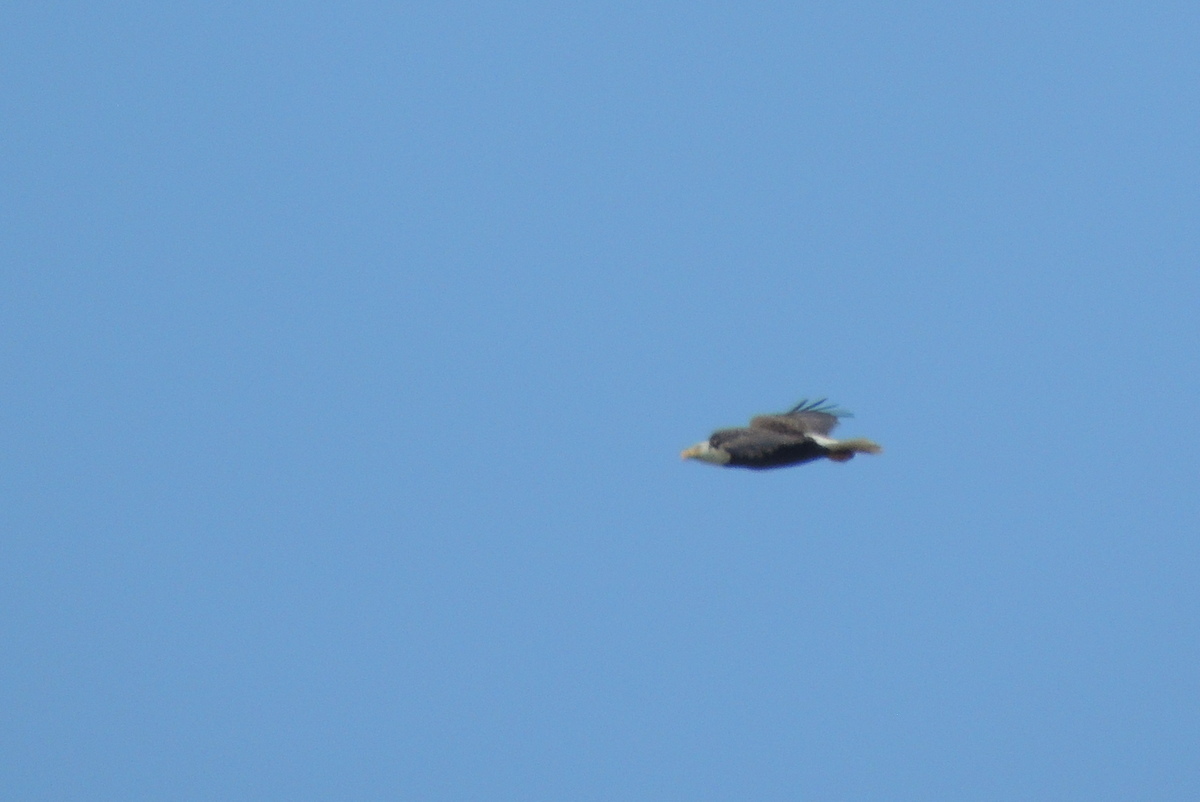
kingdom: Animalia
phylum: Chordata
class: Aves
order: Accipitriformes
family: Accipitridae
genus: Haliaeetus
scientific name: Haliaeetus leucocephalus
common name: Bald eagle
